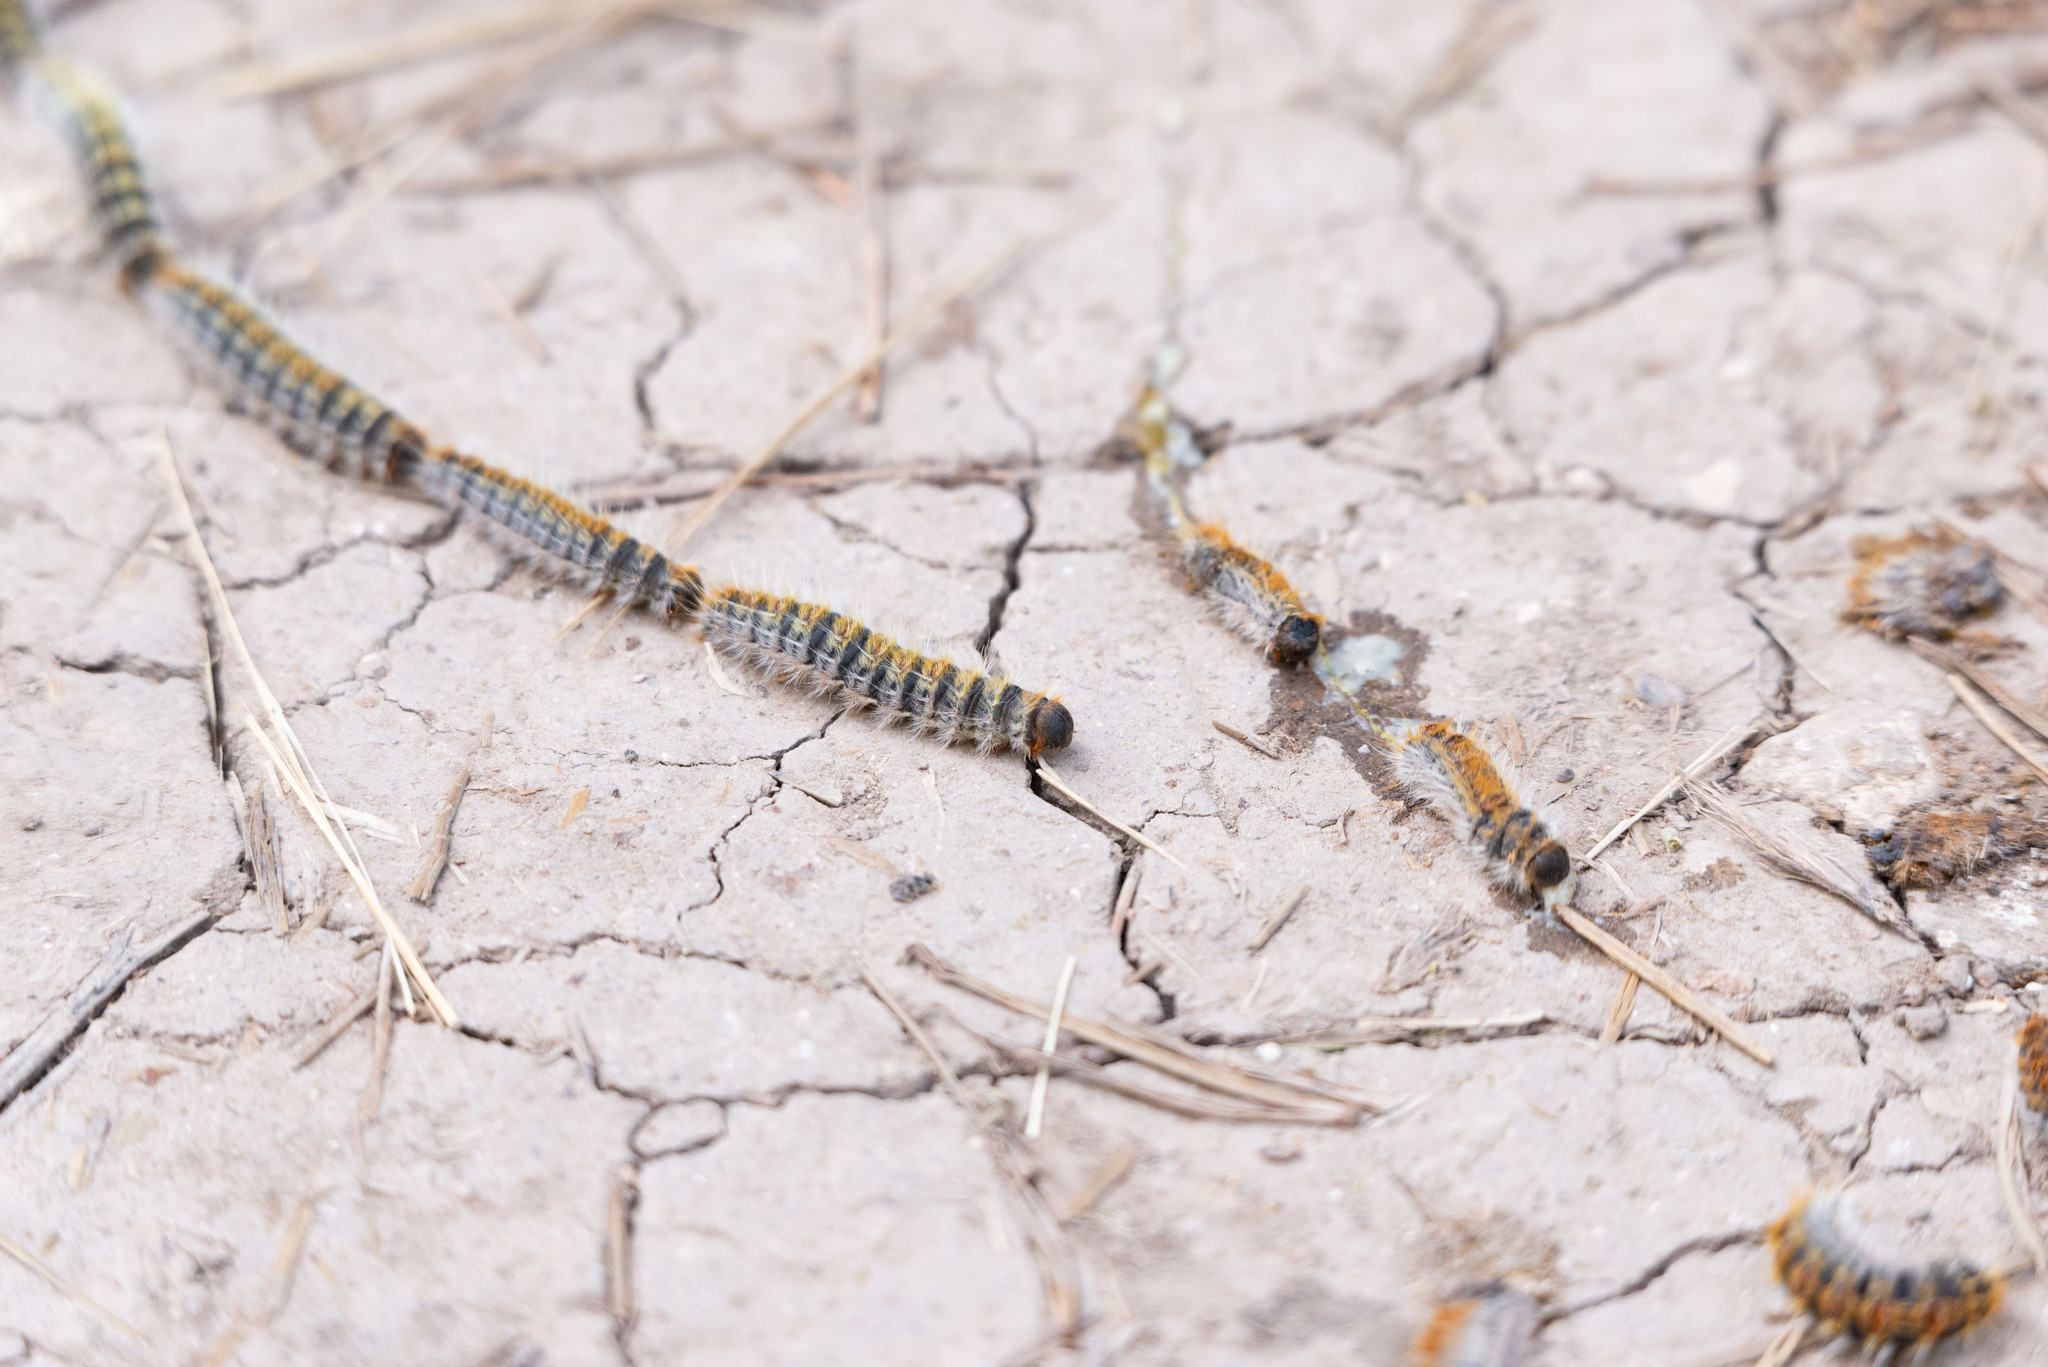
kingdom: Animalia
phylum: Arthropoda
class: Insecta
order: Lepidoptera
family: Notodontidae
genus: Thaumetopoea
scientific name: Thaumetopoea pityocampa
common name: Pine processionary
